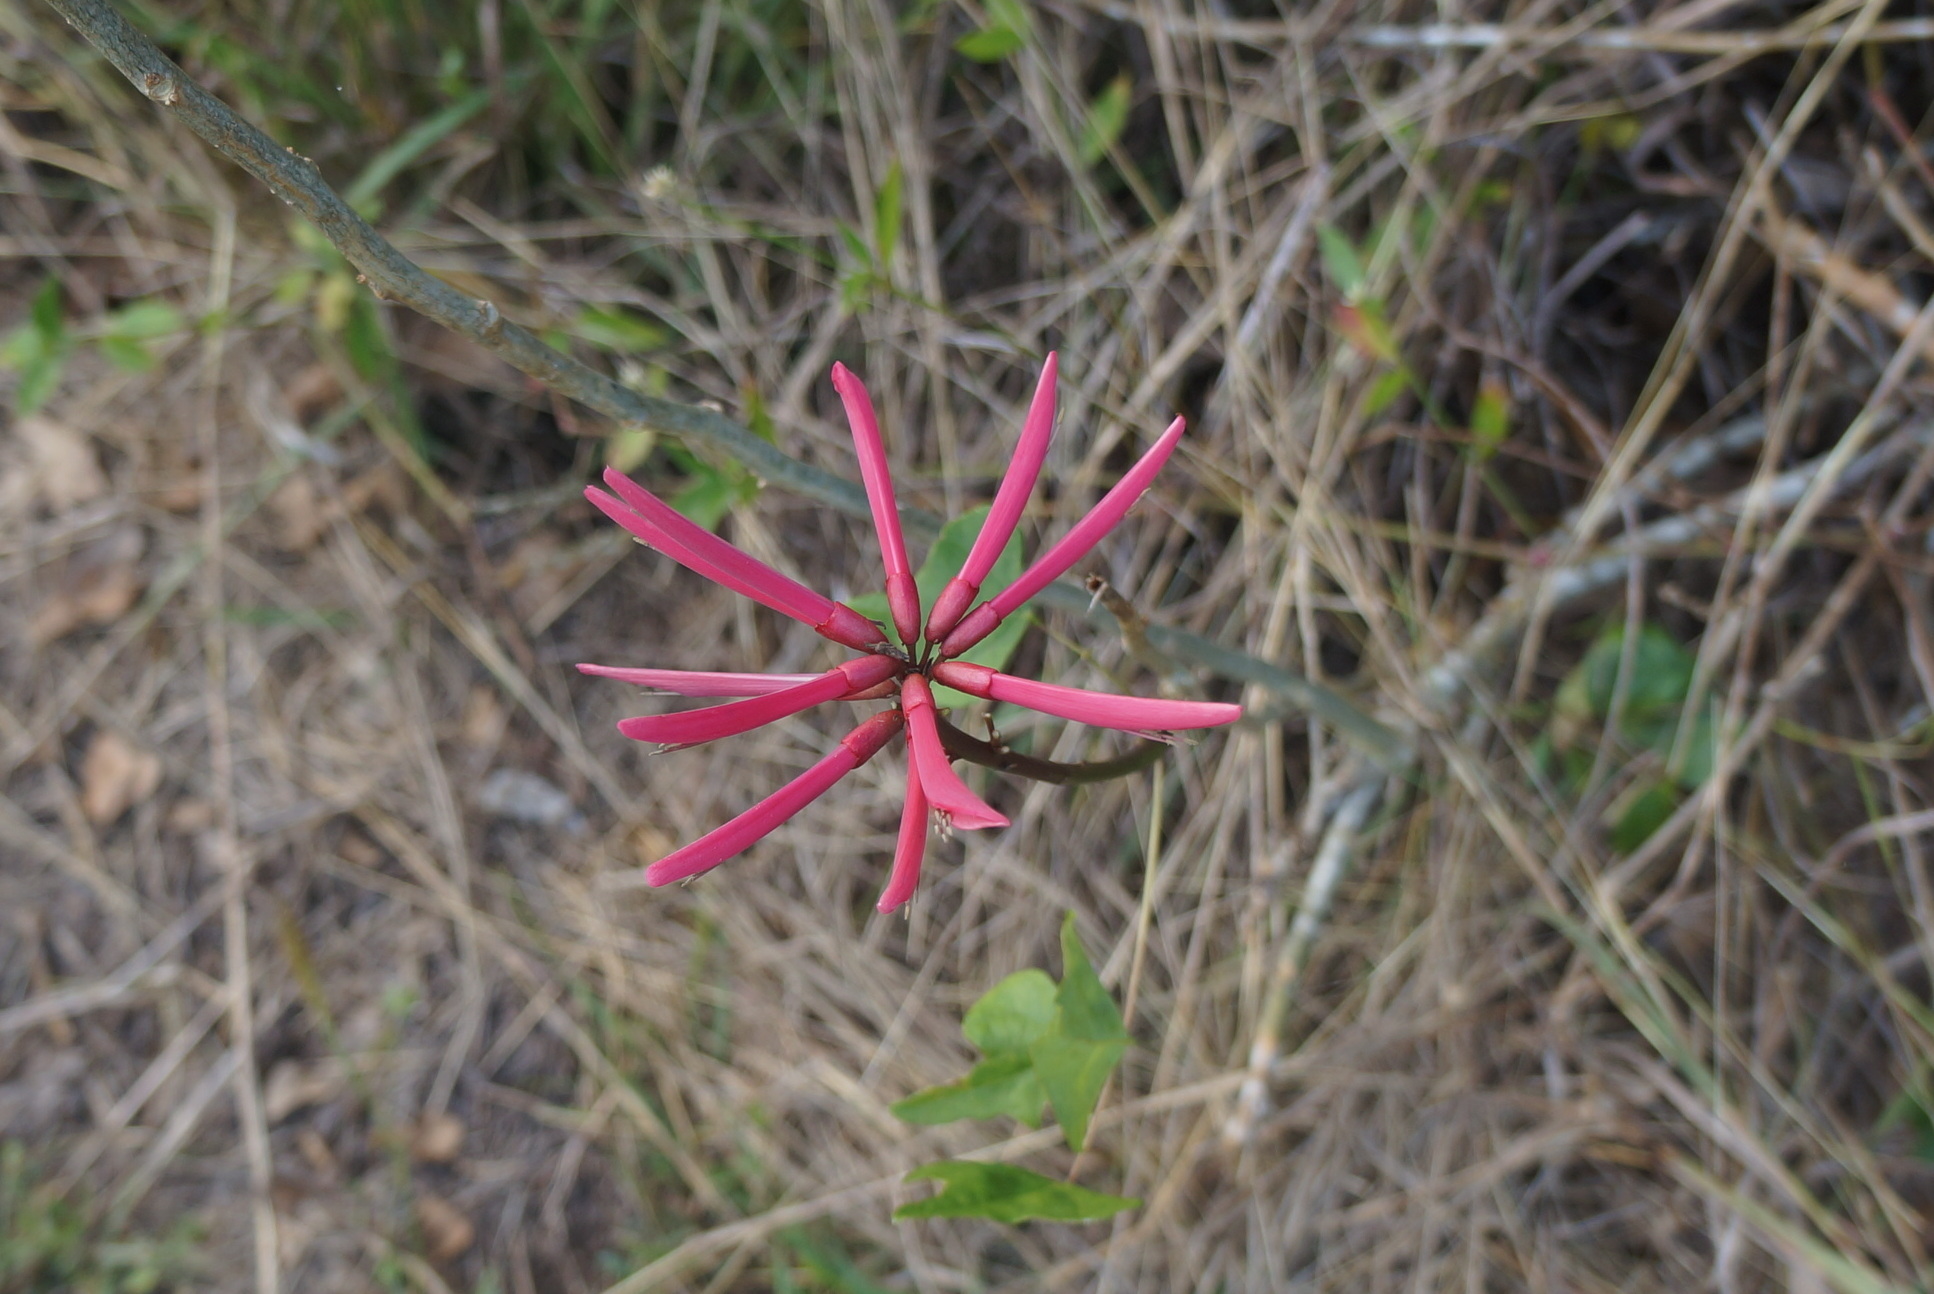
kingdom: Plantae
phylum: Tracheophyta
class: Magnoliopsida
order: Fabales
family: Fabaceae
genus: Erythrina
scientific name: Erythrina herbacea
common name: Coral-bean
